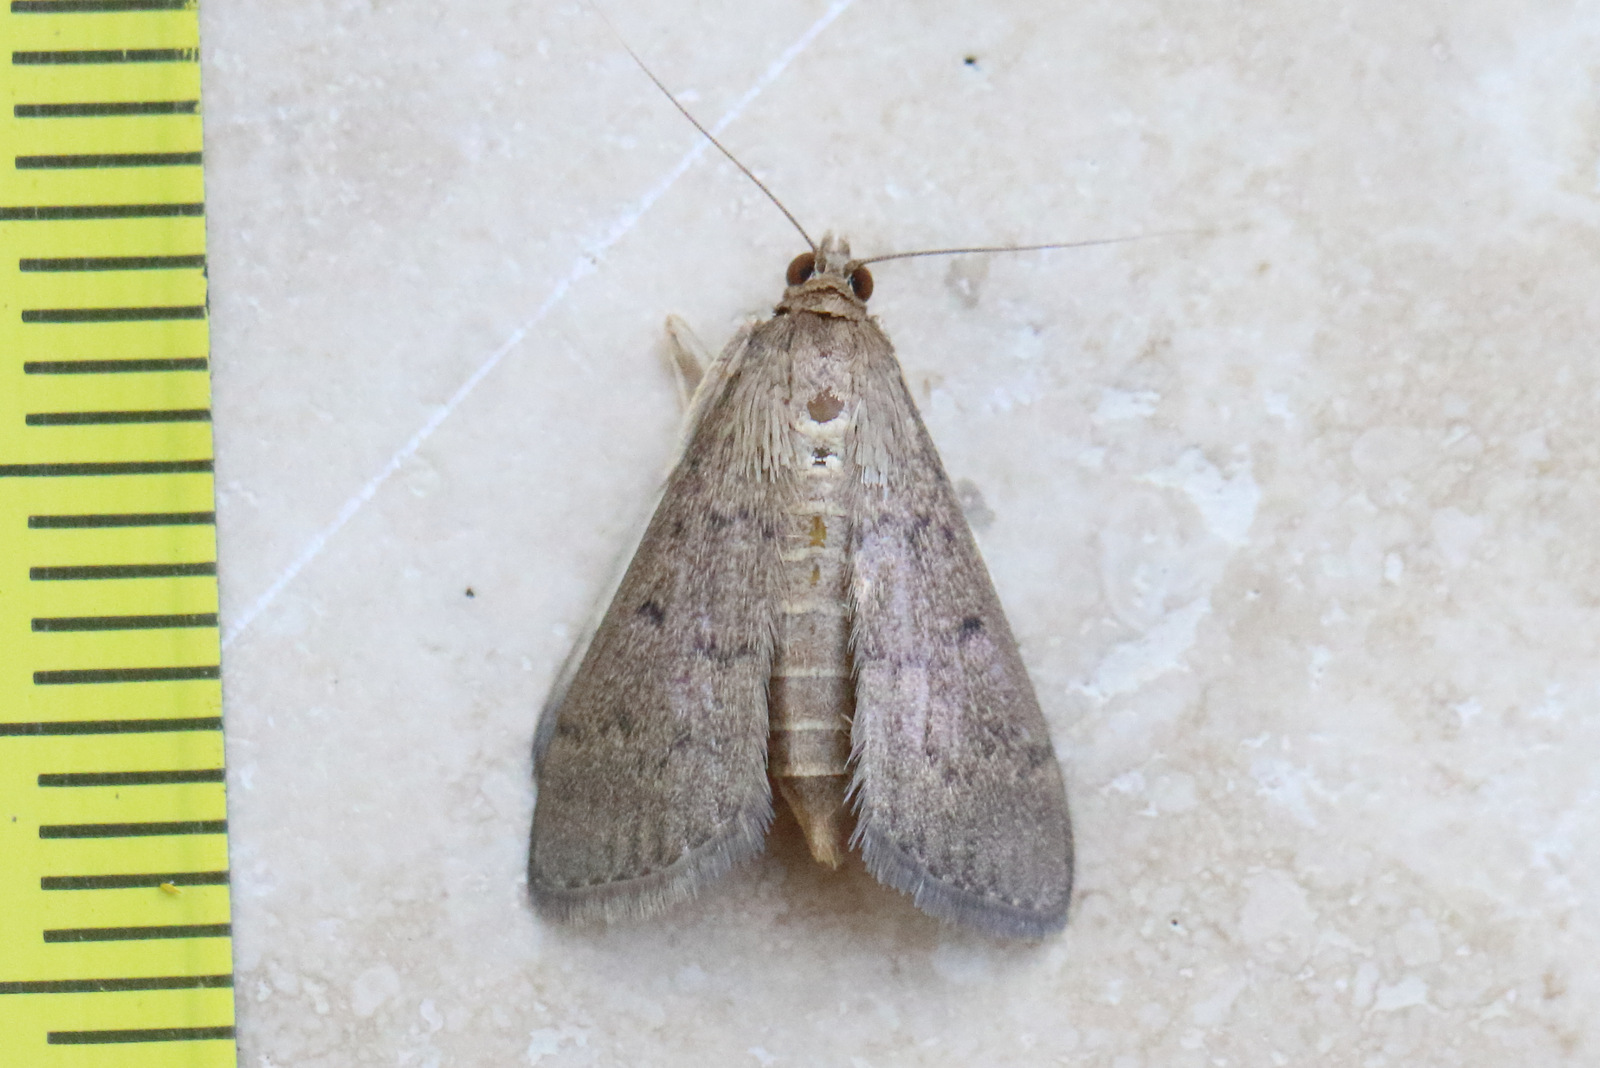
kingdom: Animalia
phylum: Arthropoda
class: Insecta
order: Lepidoptera
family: Crambidae
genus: Herpetogramma
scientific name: Herpetogramma licarsisalis
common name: Grass webworm
